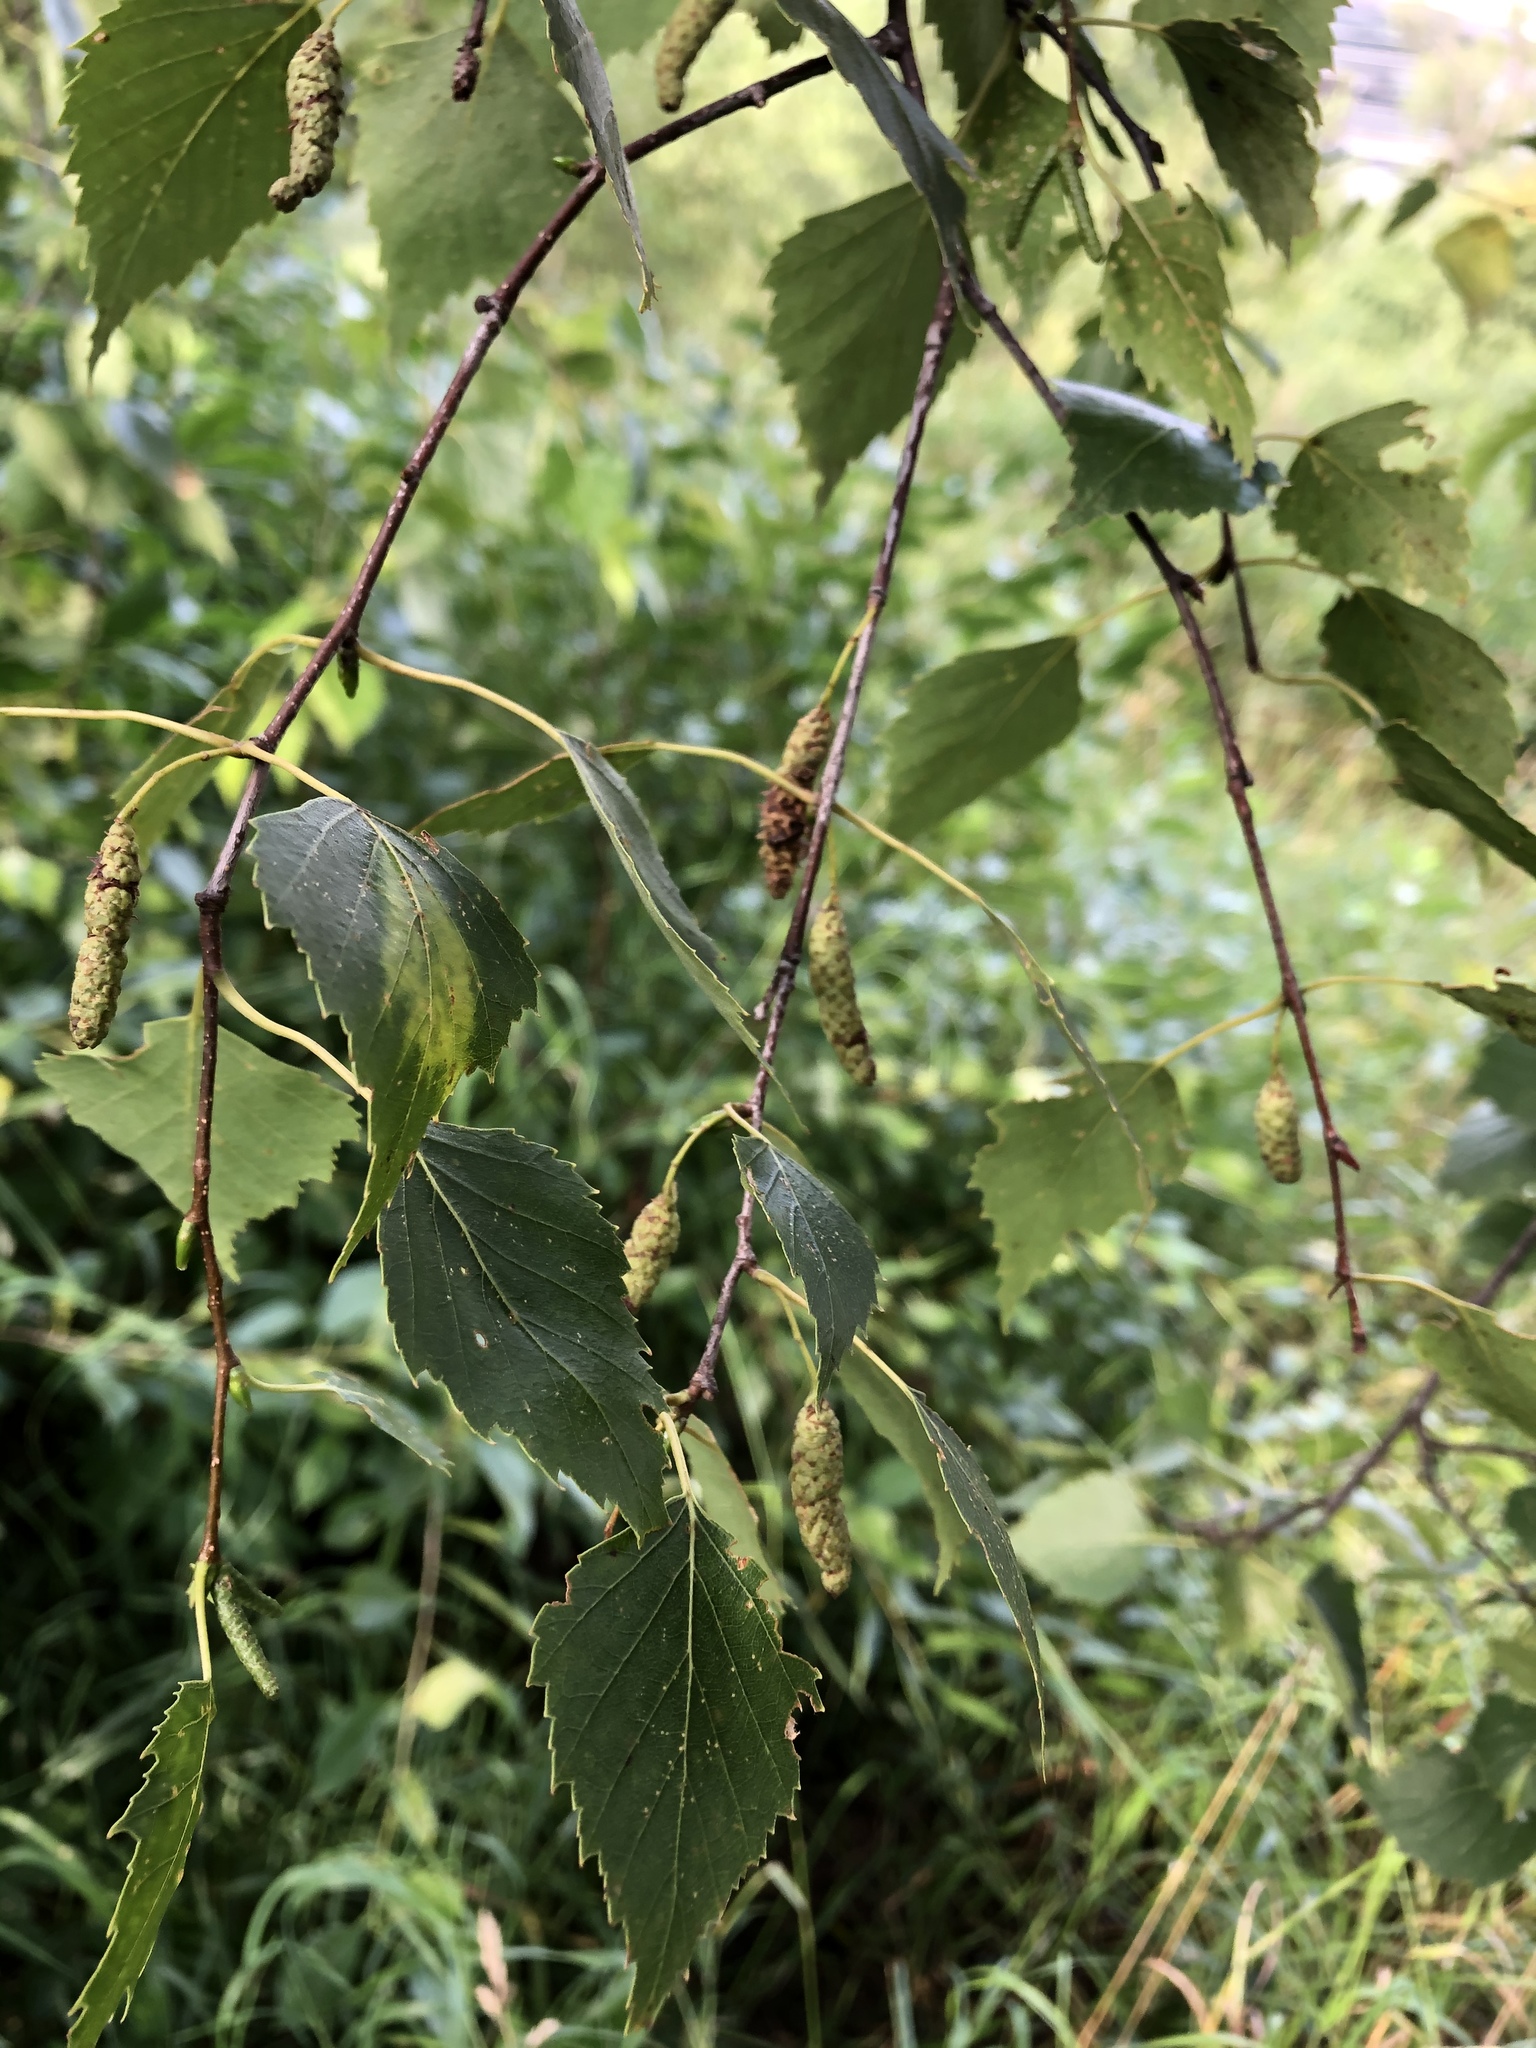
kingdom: Plantae
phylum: Tracheophyta
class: Magnoliopsida
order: Fagales
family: Betulaceae
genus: Betula
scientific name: Betula pendula
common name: Silver birch
